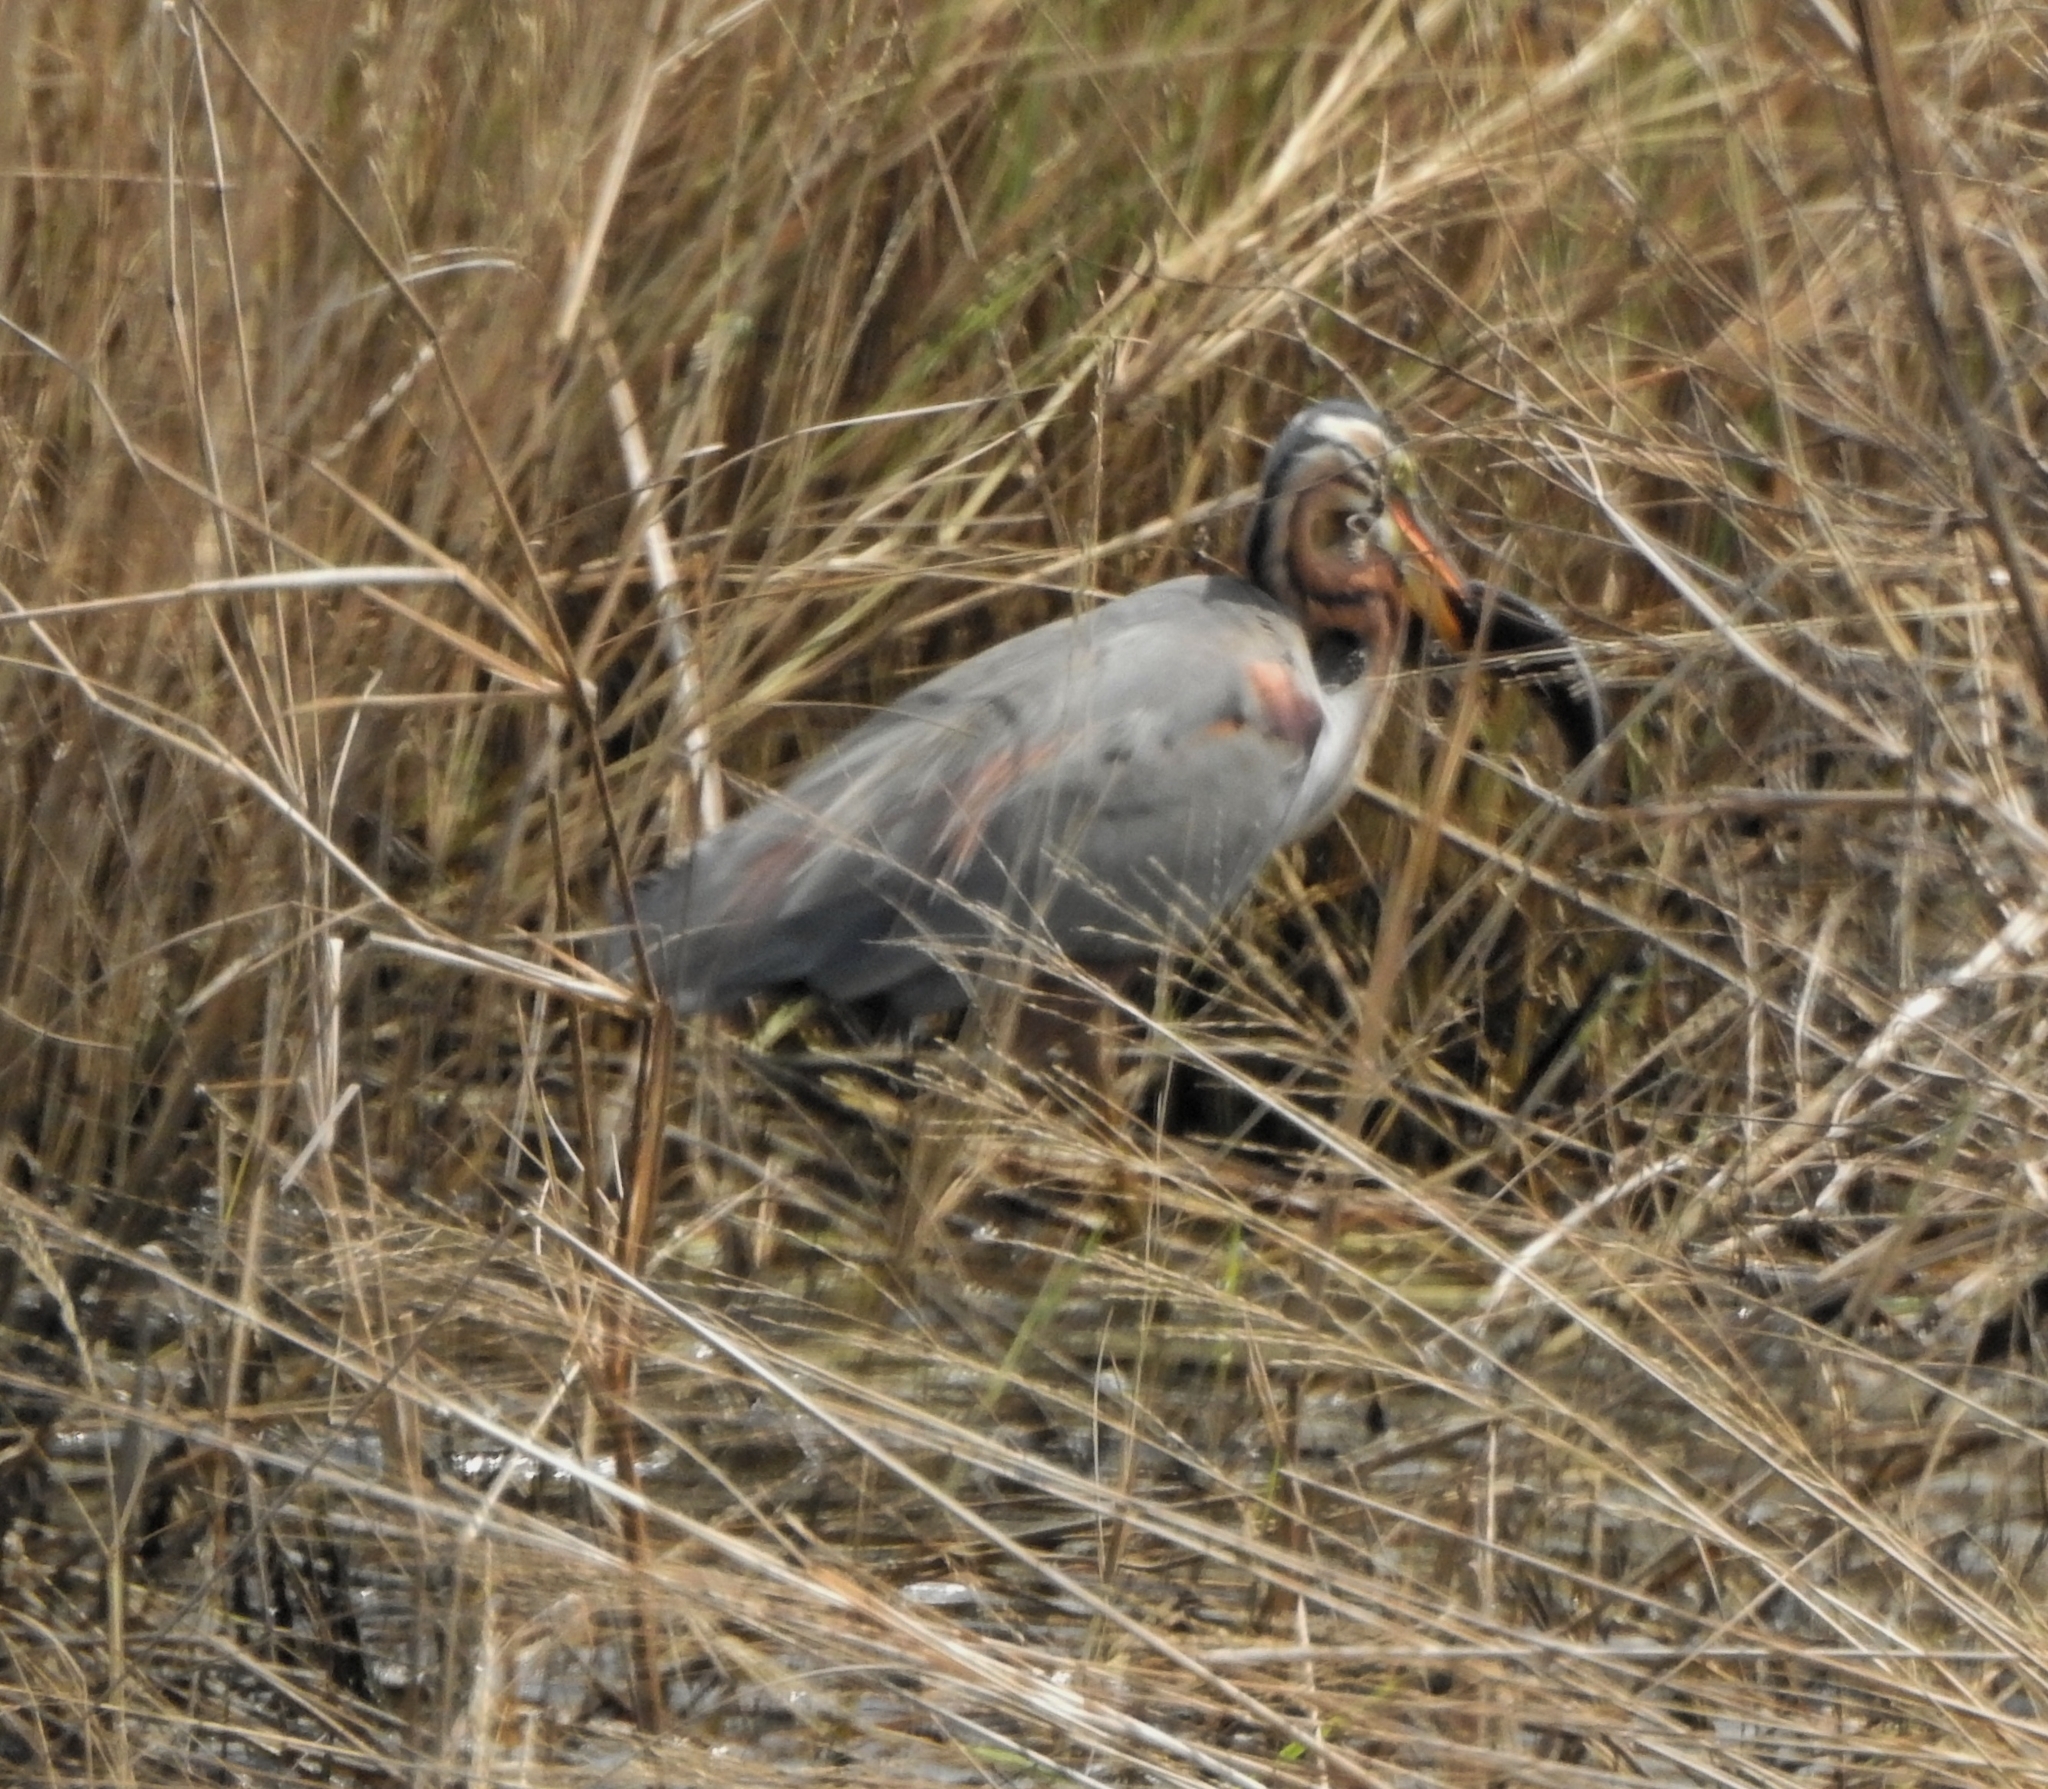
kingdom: Animalia
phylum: Chordata
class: Aves
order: Pelecaniformes
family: Ardeidae
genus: Ardea
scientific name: Ardea purpurea
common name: Purple heron
